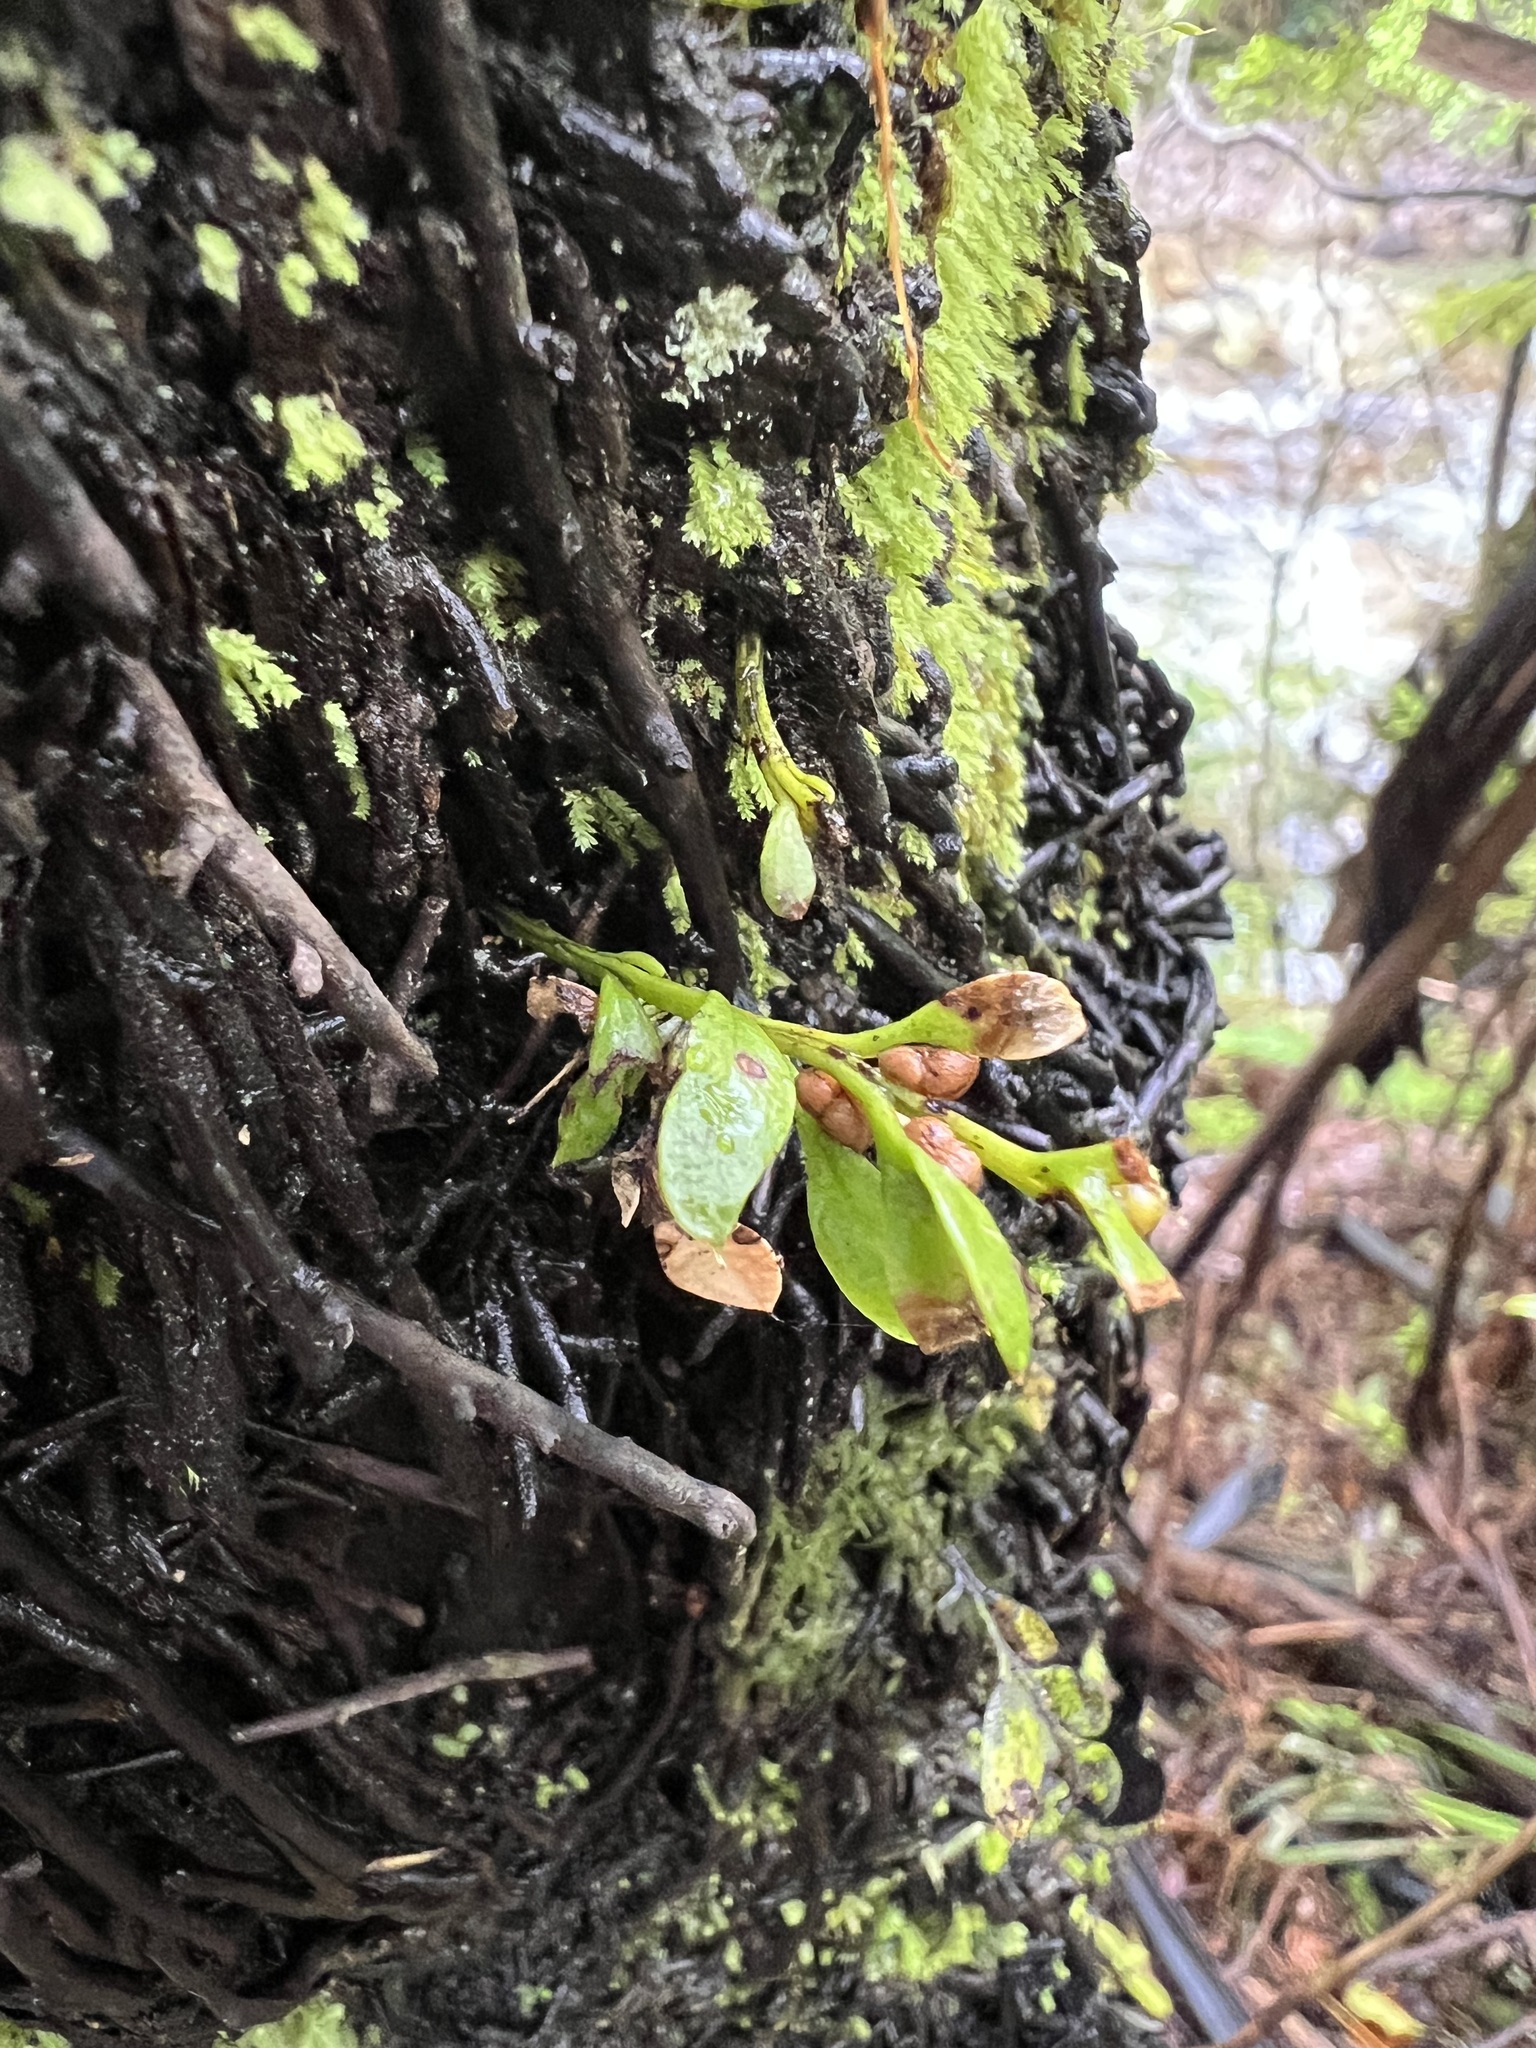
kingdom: Plantae
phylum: Tracheophyta
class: Polypodiopsida
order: Psilotales
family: Psilotaceae
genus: Tmesipteris
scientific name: Tmesipteris lanceolata
